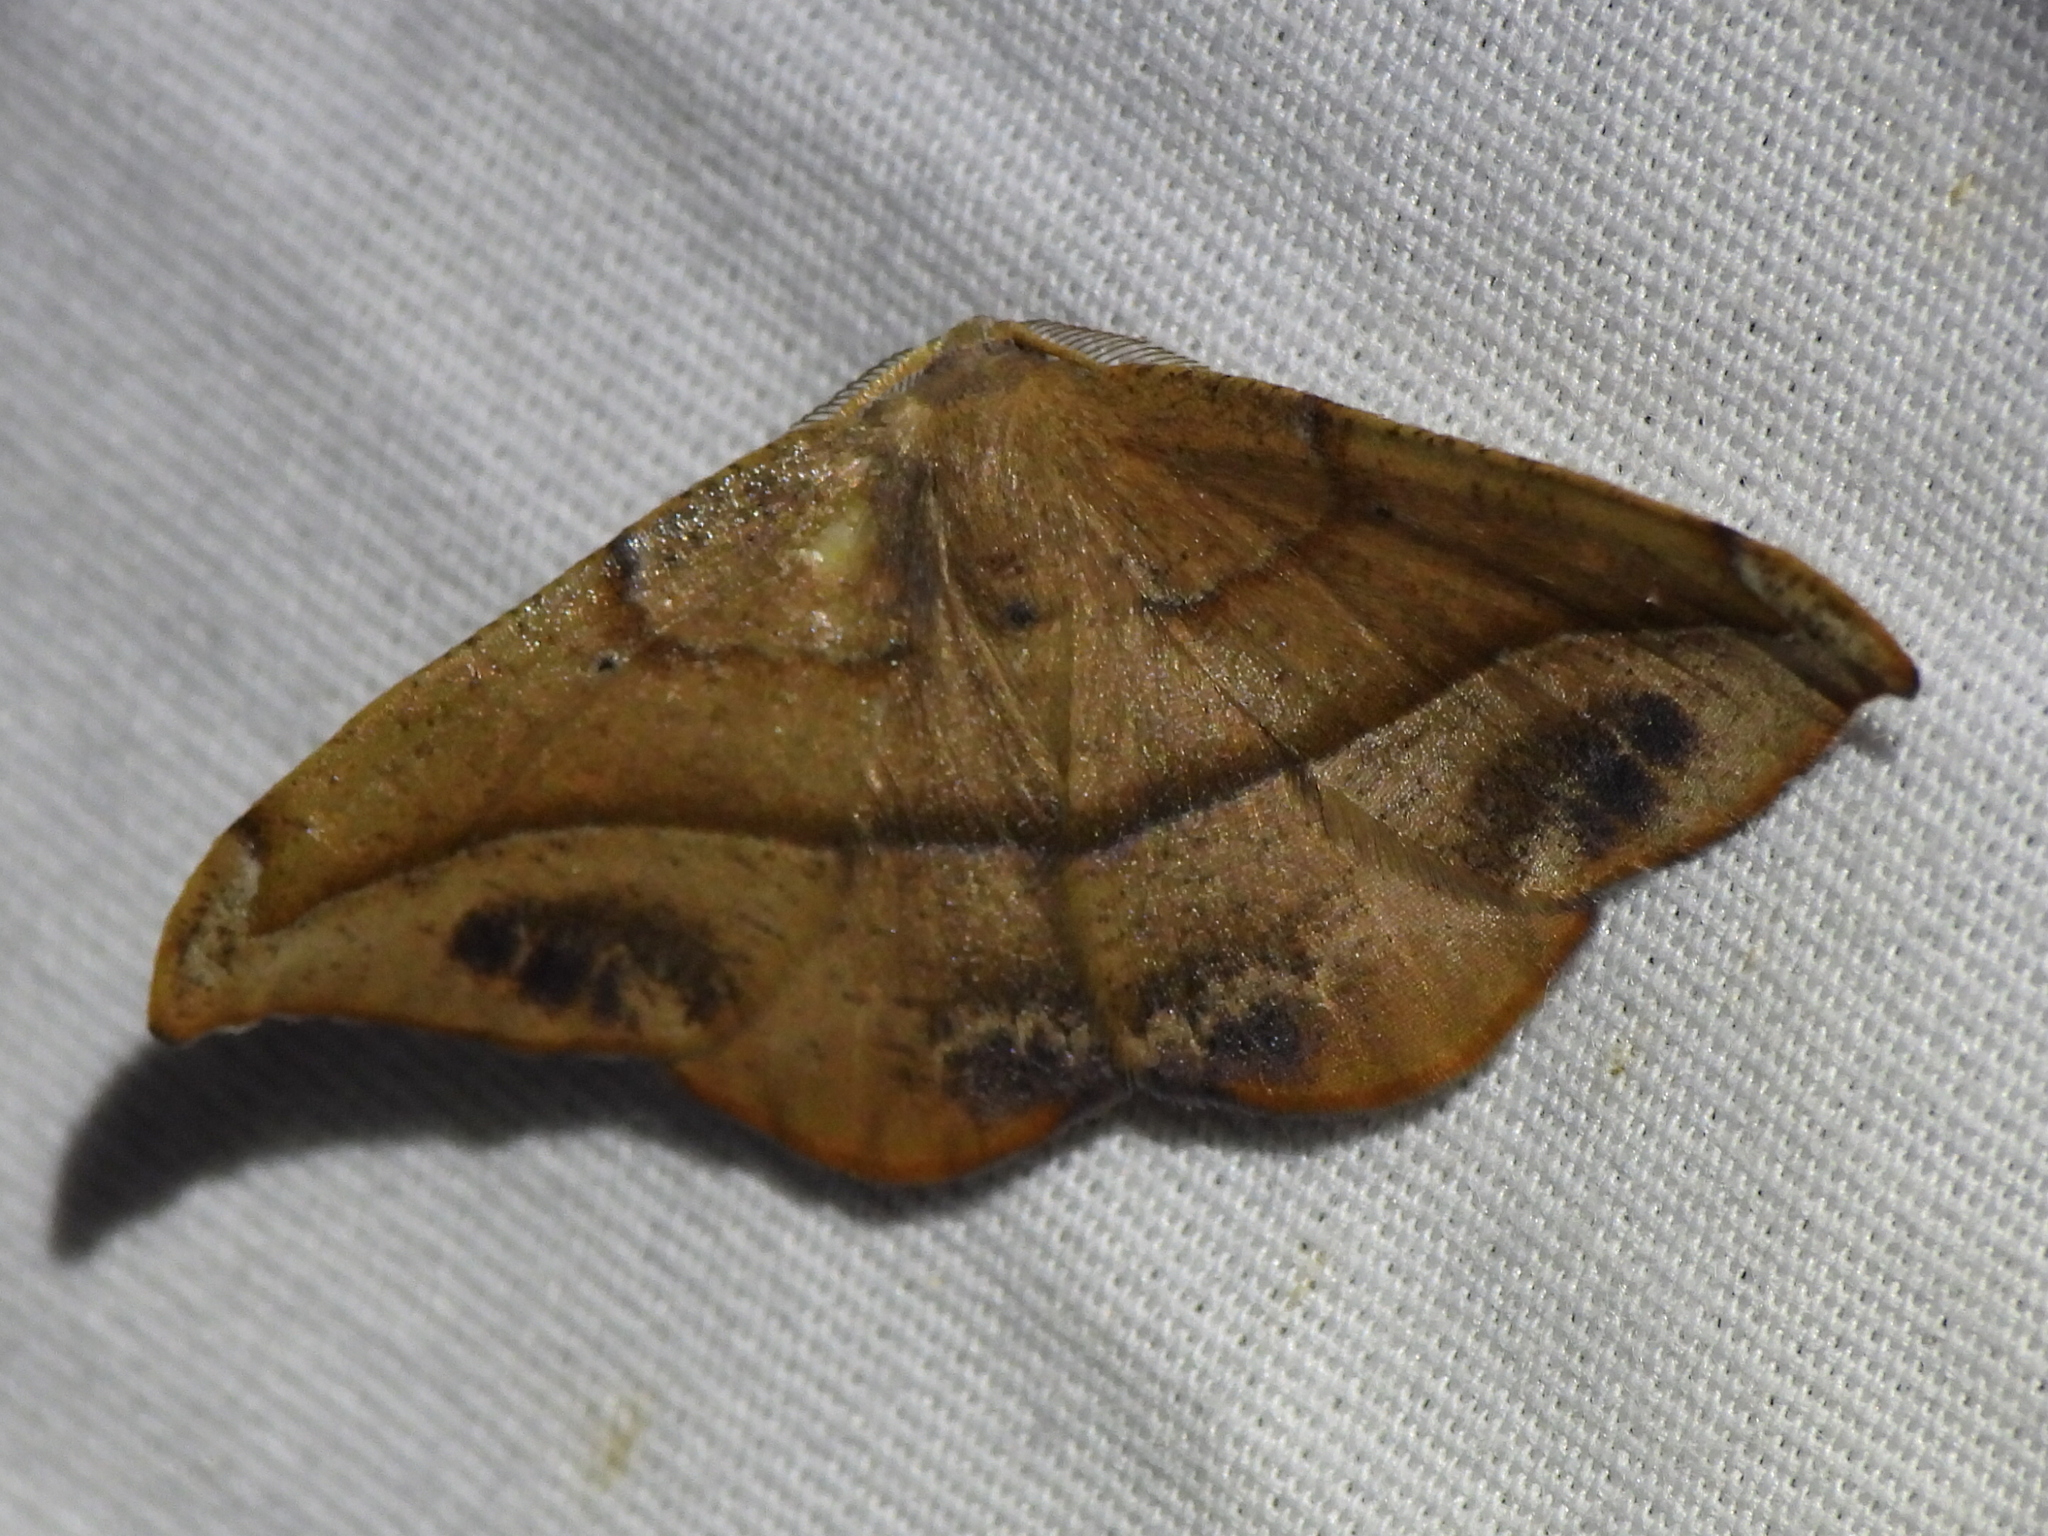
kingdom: Animalia
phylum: Arthropoda
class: Insecta
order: Lepidoptera
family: Geometridae
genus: Patalene
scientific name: Patalene olyzonaria
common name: Juniper geometer moth
